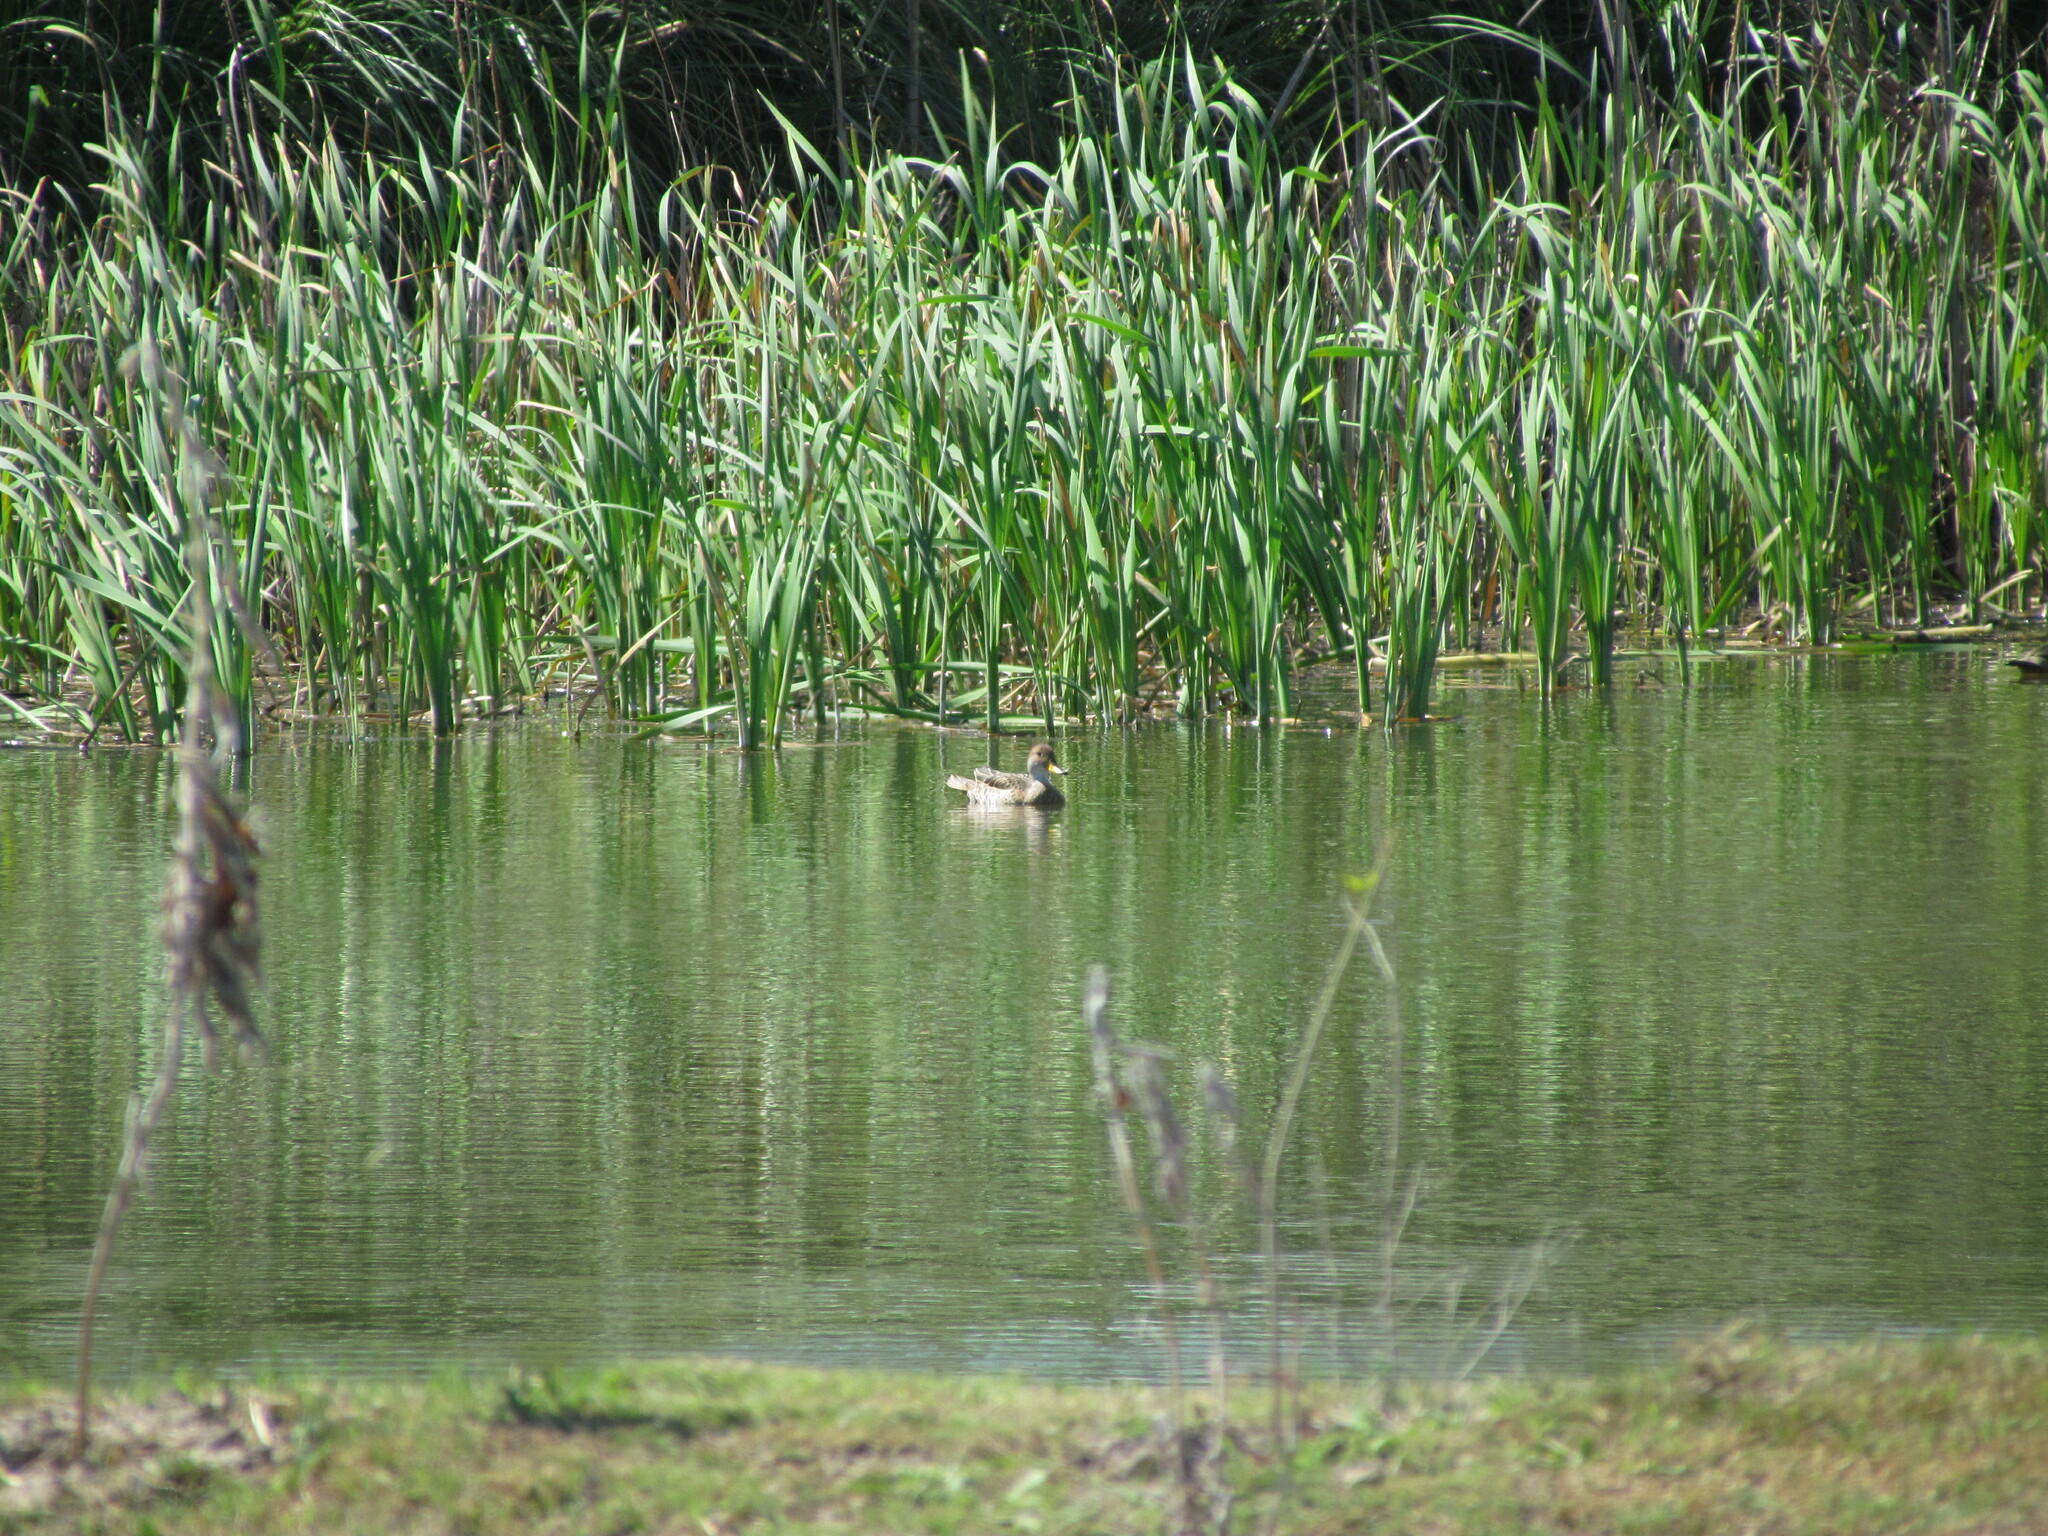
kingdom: Animalia
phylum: Chordata
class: Aves
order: Anseriformes
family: Anatidae
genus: Anas
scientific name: Anas georgica
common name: Yellow-billed pintail
